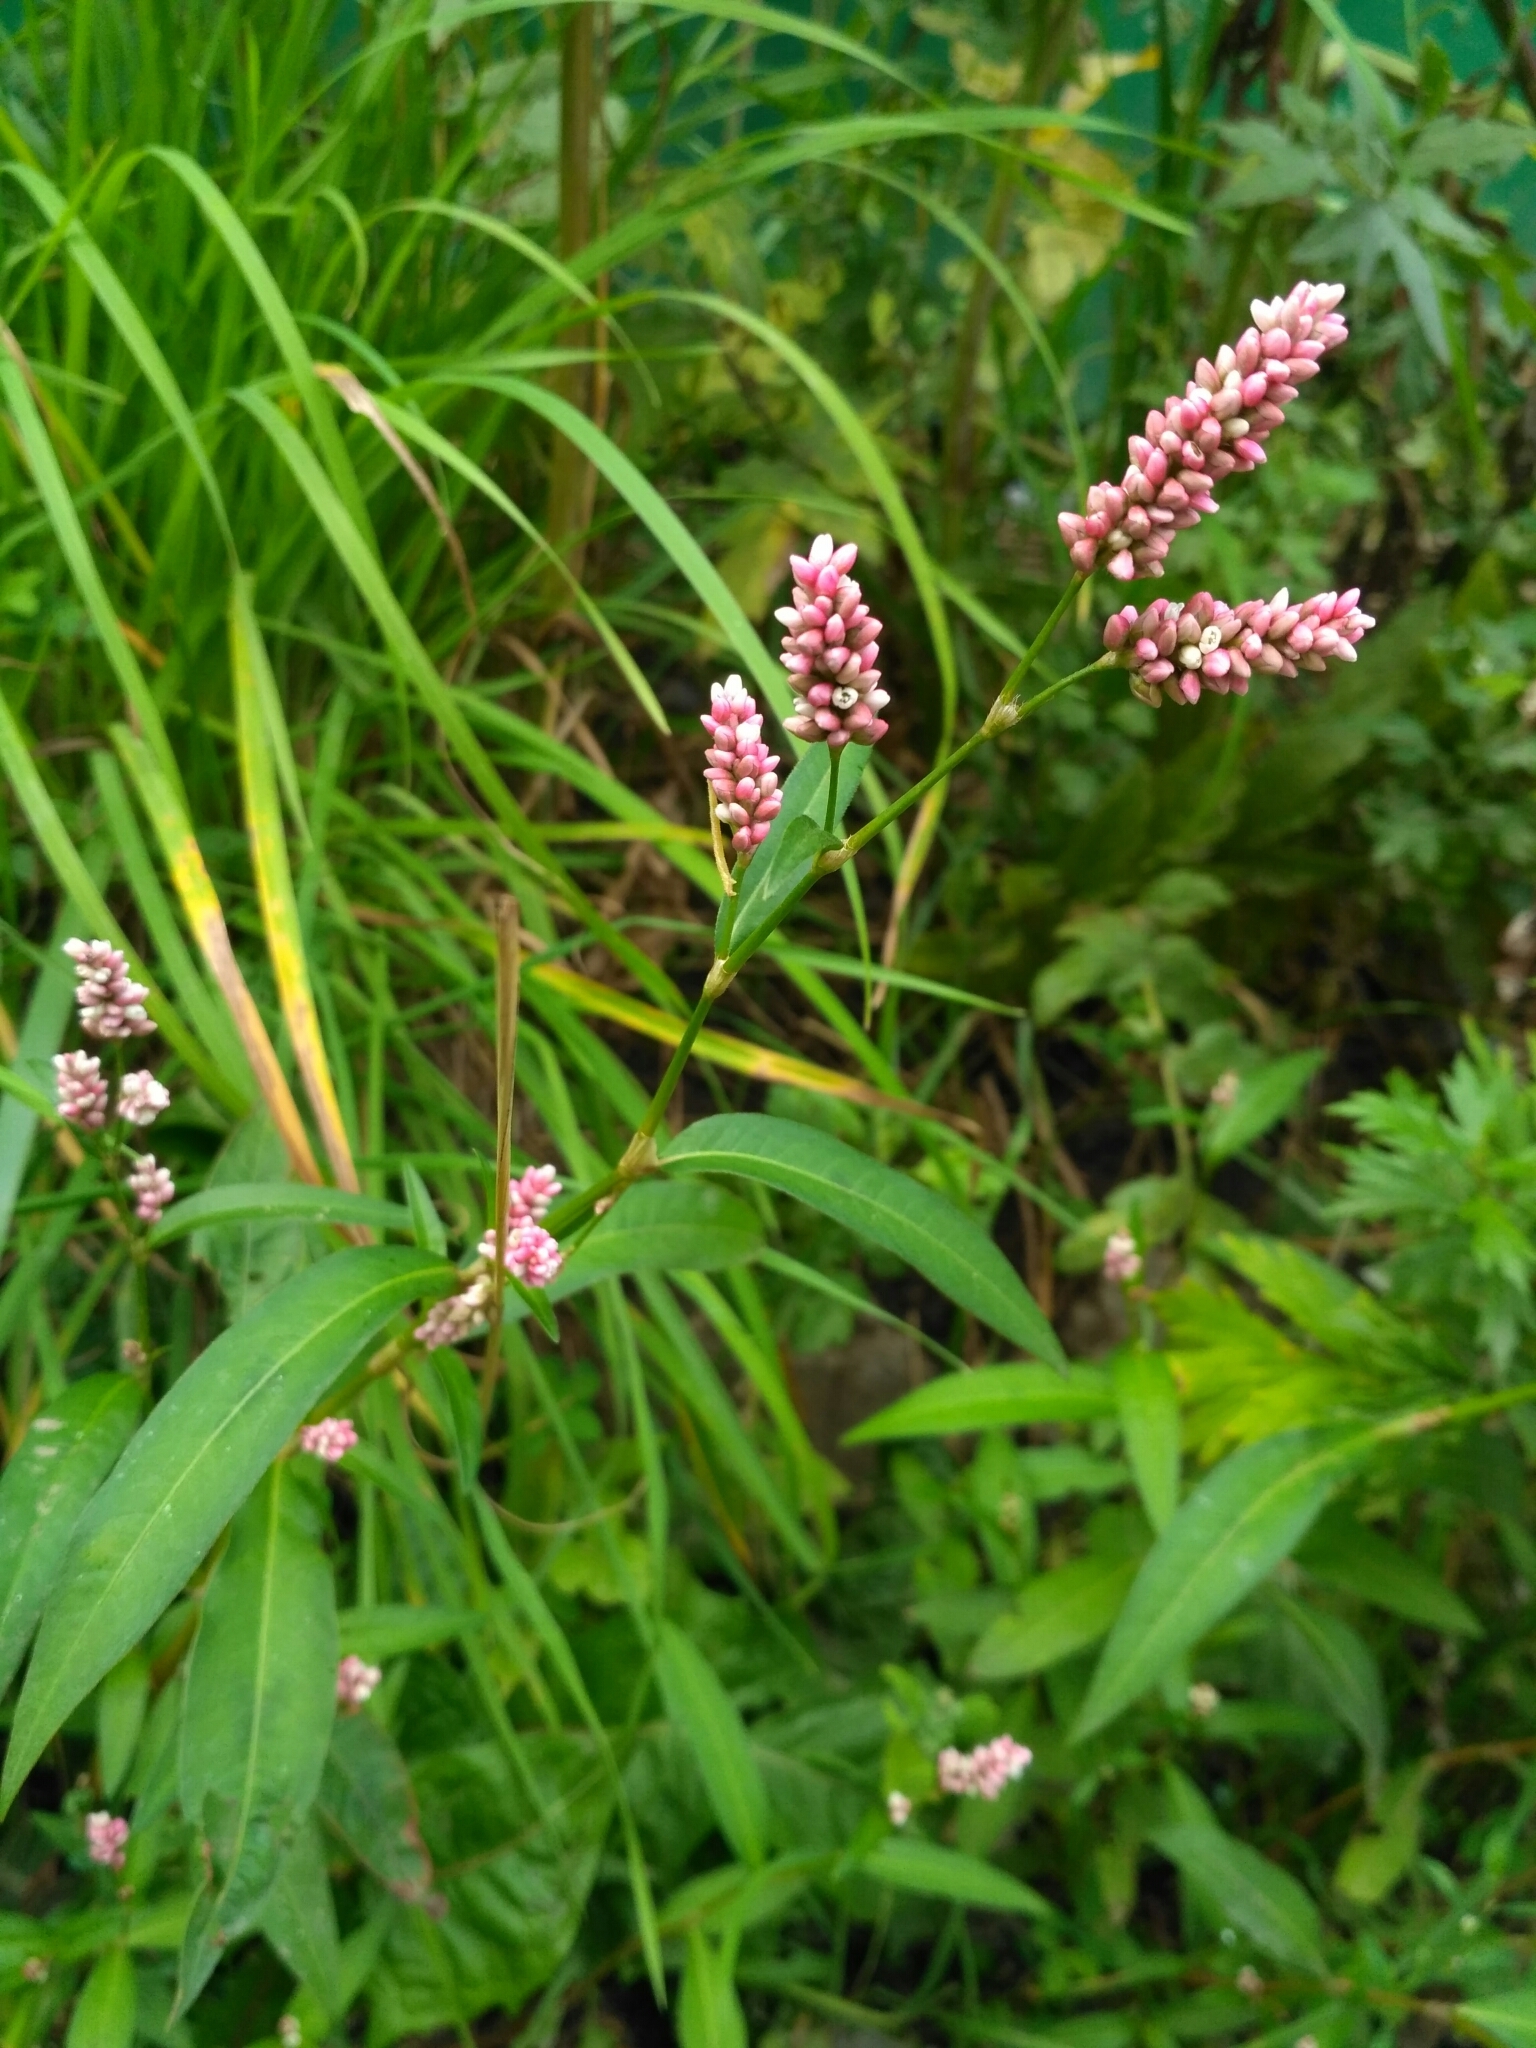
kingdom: Plantae
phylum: Tracheophyta
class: Magnoliopsida
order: Caryophyllales
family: Polygonaceae
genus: Persicaria
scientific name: Persicaria lapathifolia
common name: Curlytop knotweed
